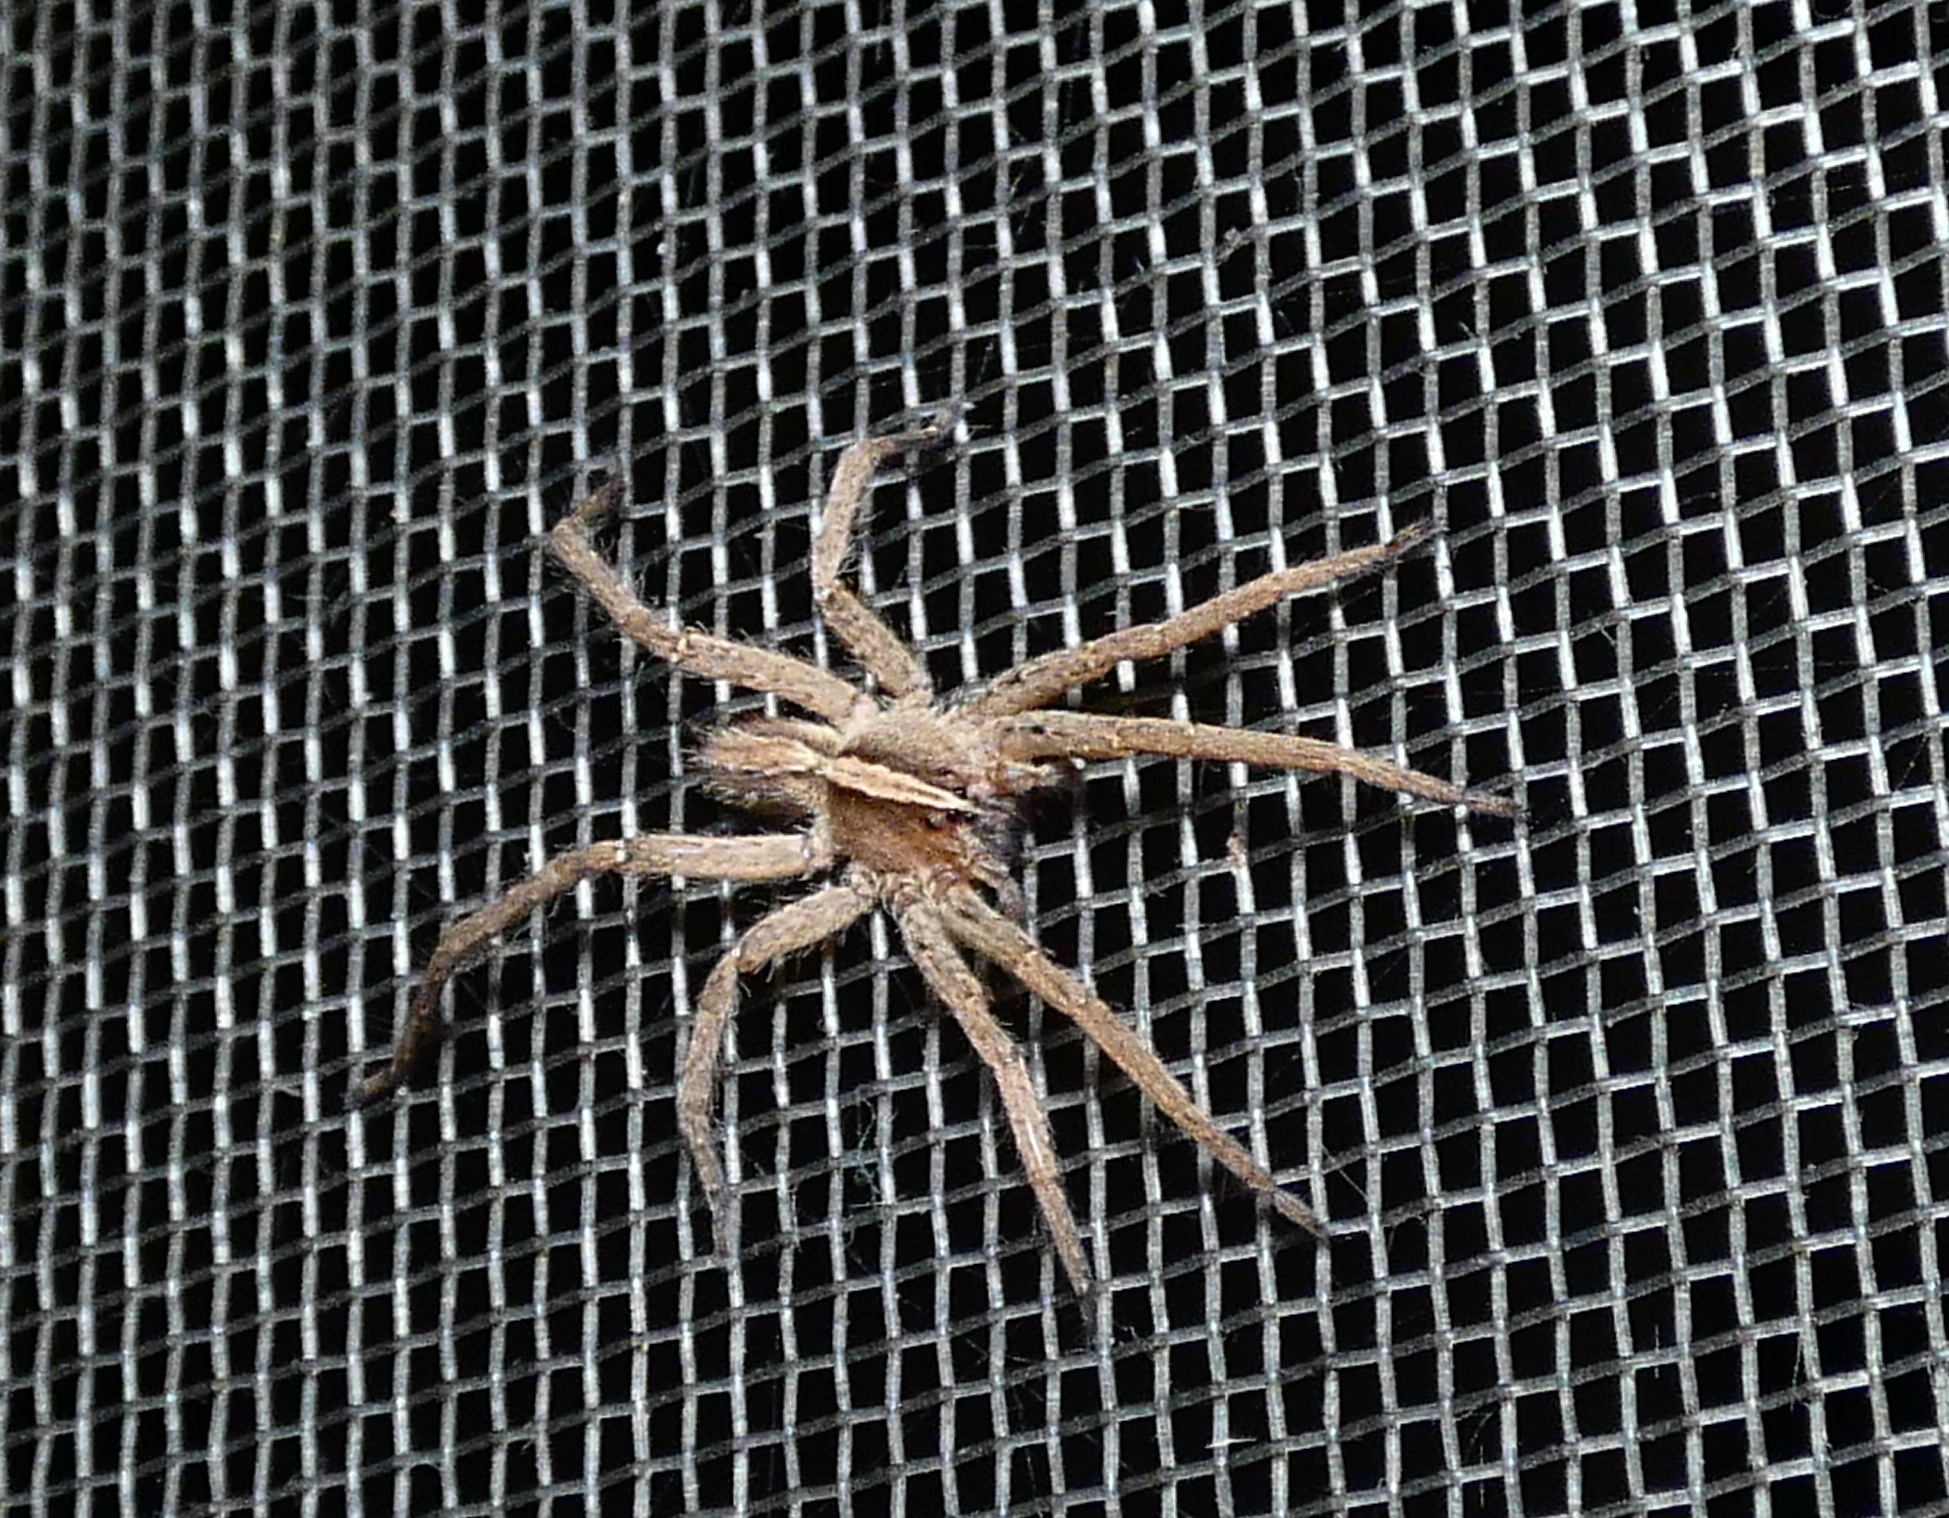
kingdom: Animalia
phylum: Arthropoda
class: Arachnida
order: Araneae
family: Ctenidae
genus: Parabatinga
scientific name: Parabatinga brevipes
